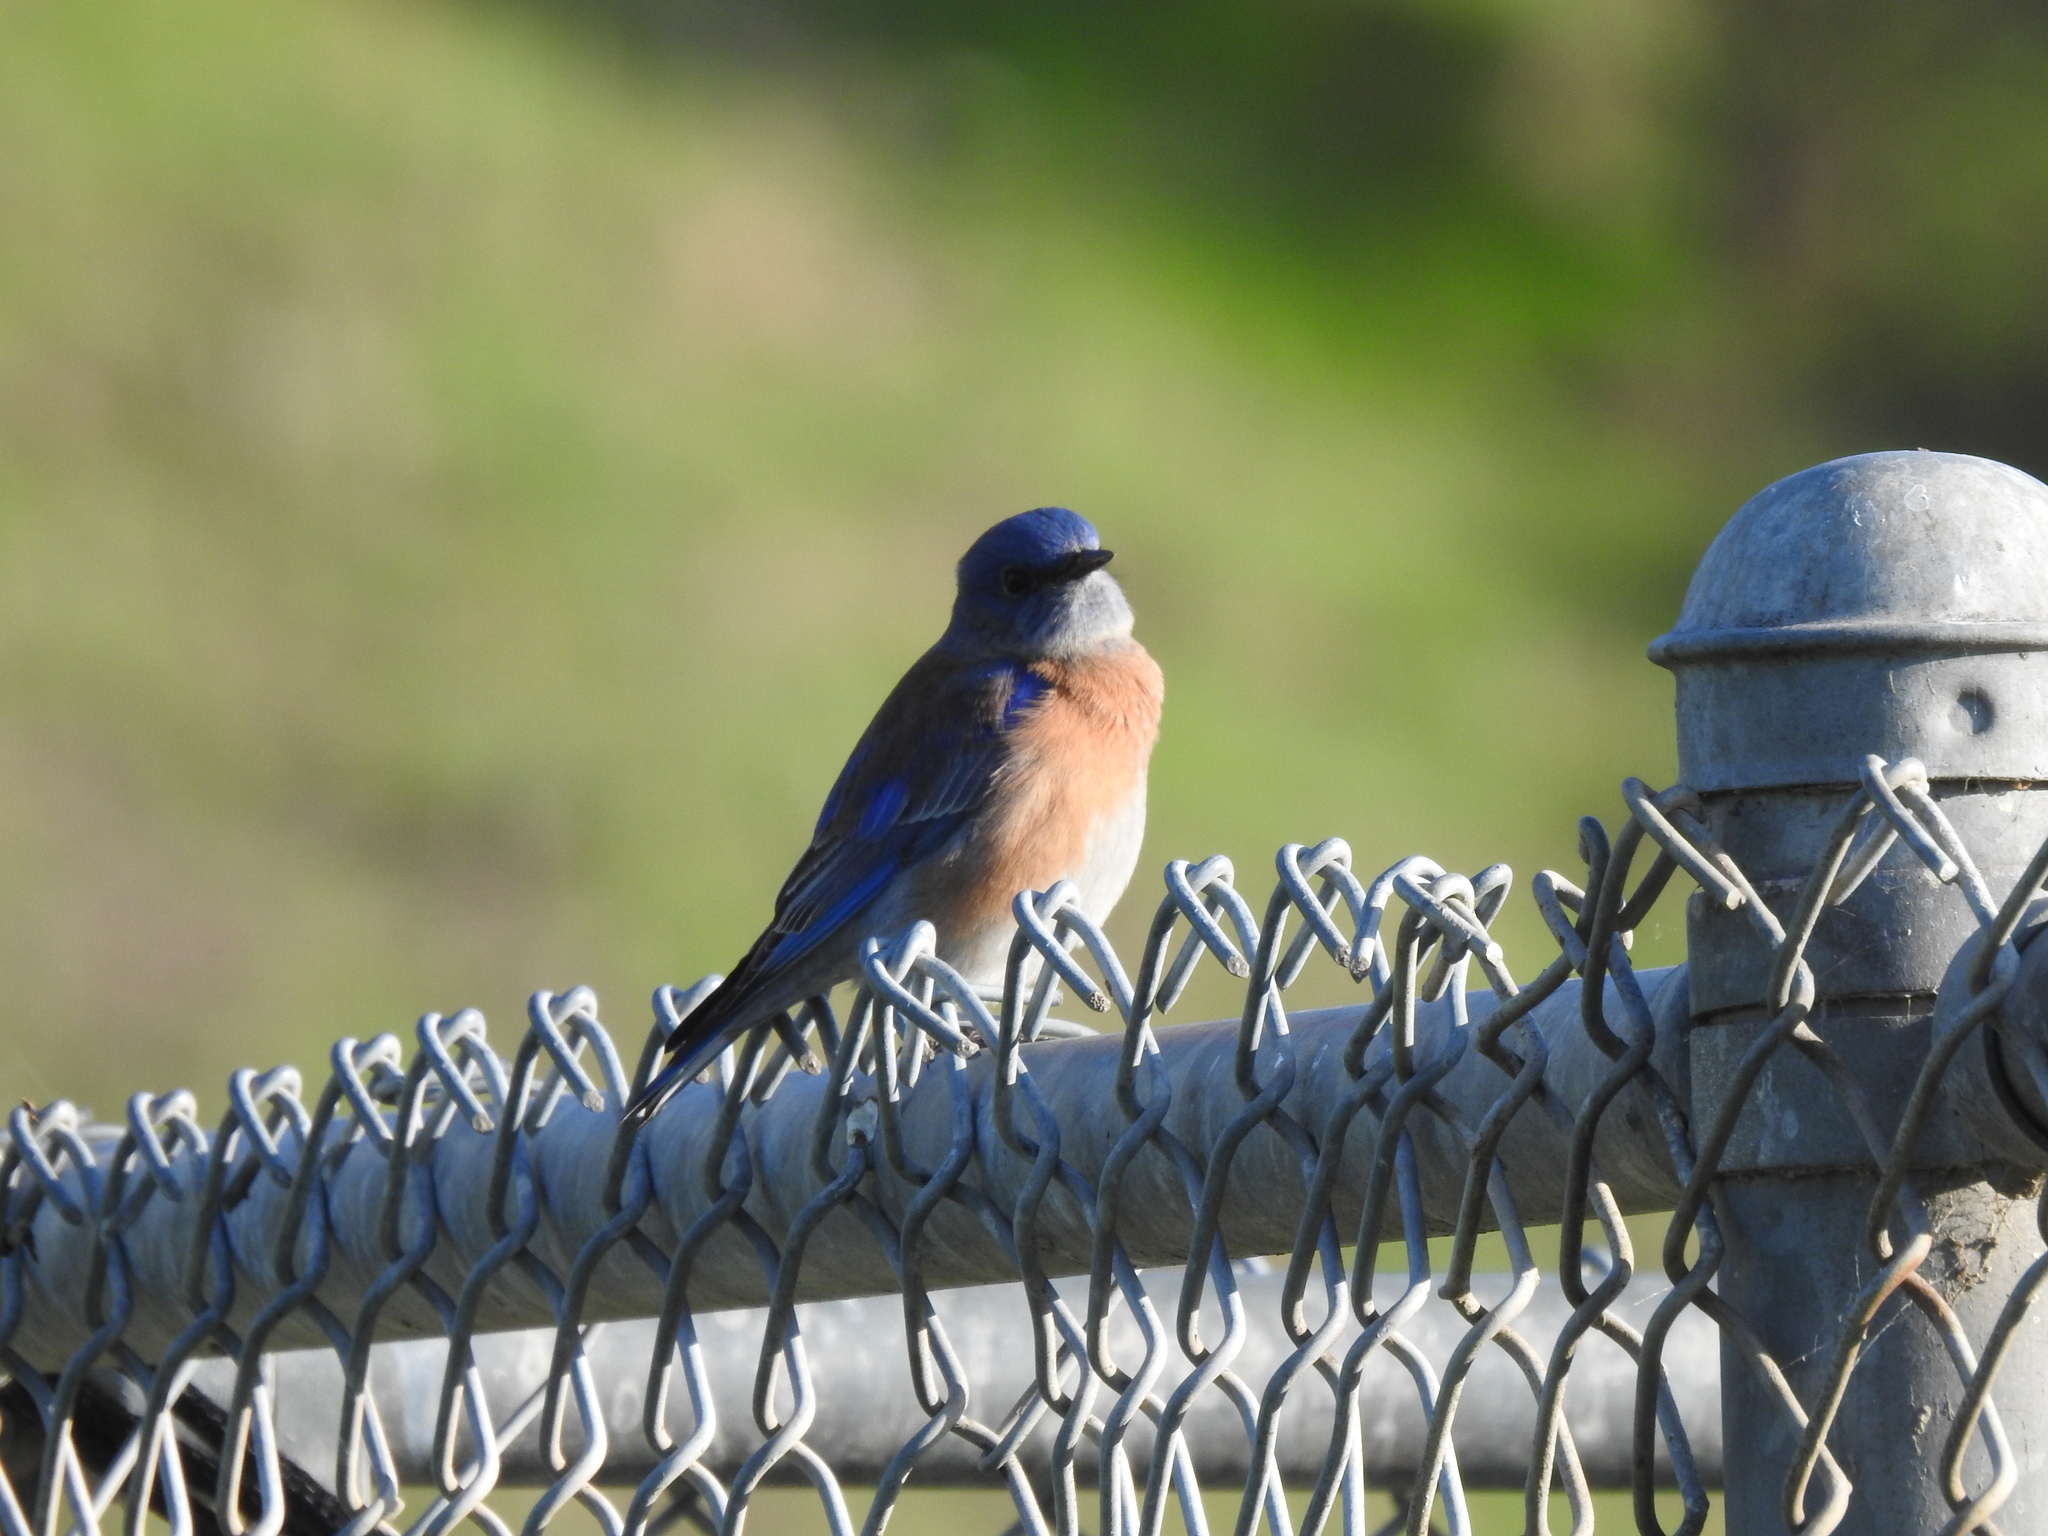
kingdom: Animalia
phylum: Chordata
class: Aves
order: Passeriformes
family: Turdidae
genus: Sialia
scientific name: Sialia mexicana
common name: Western bluebird
